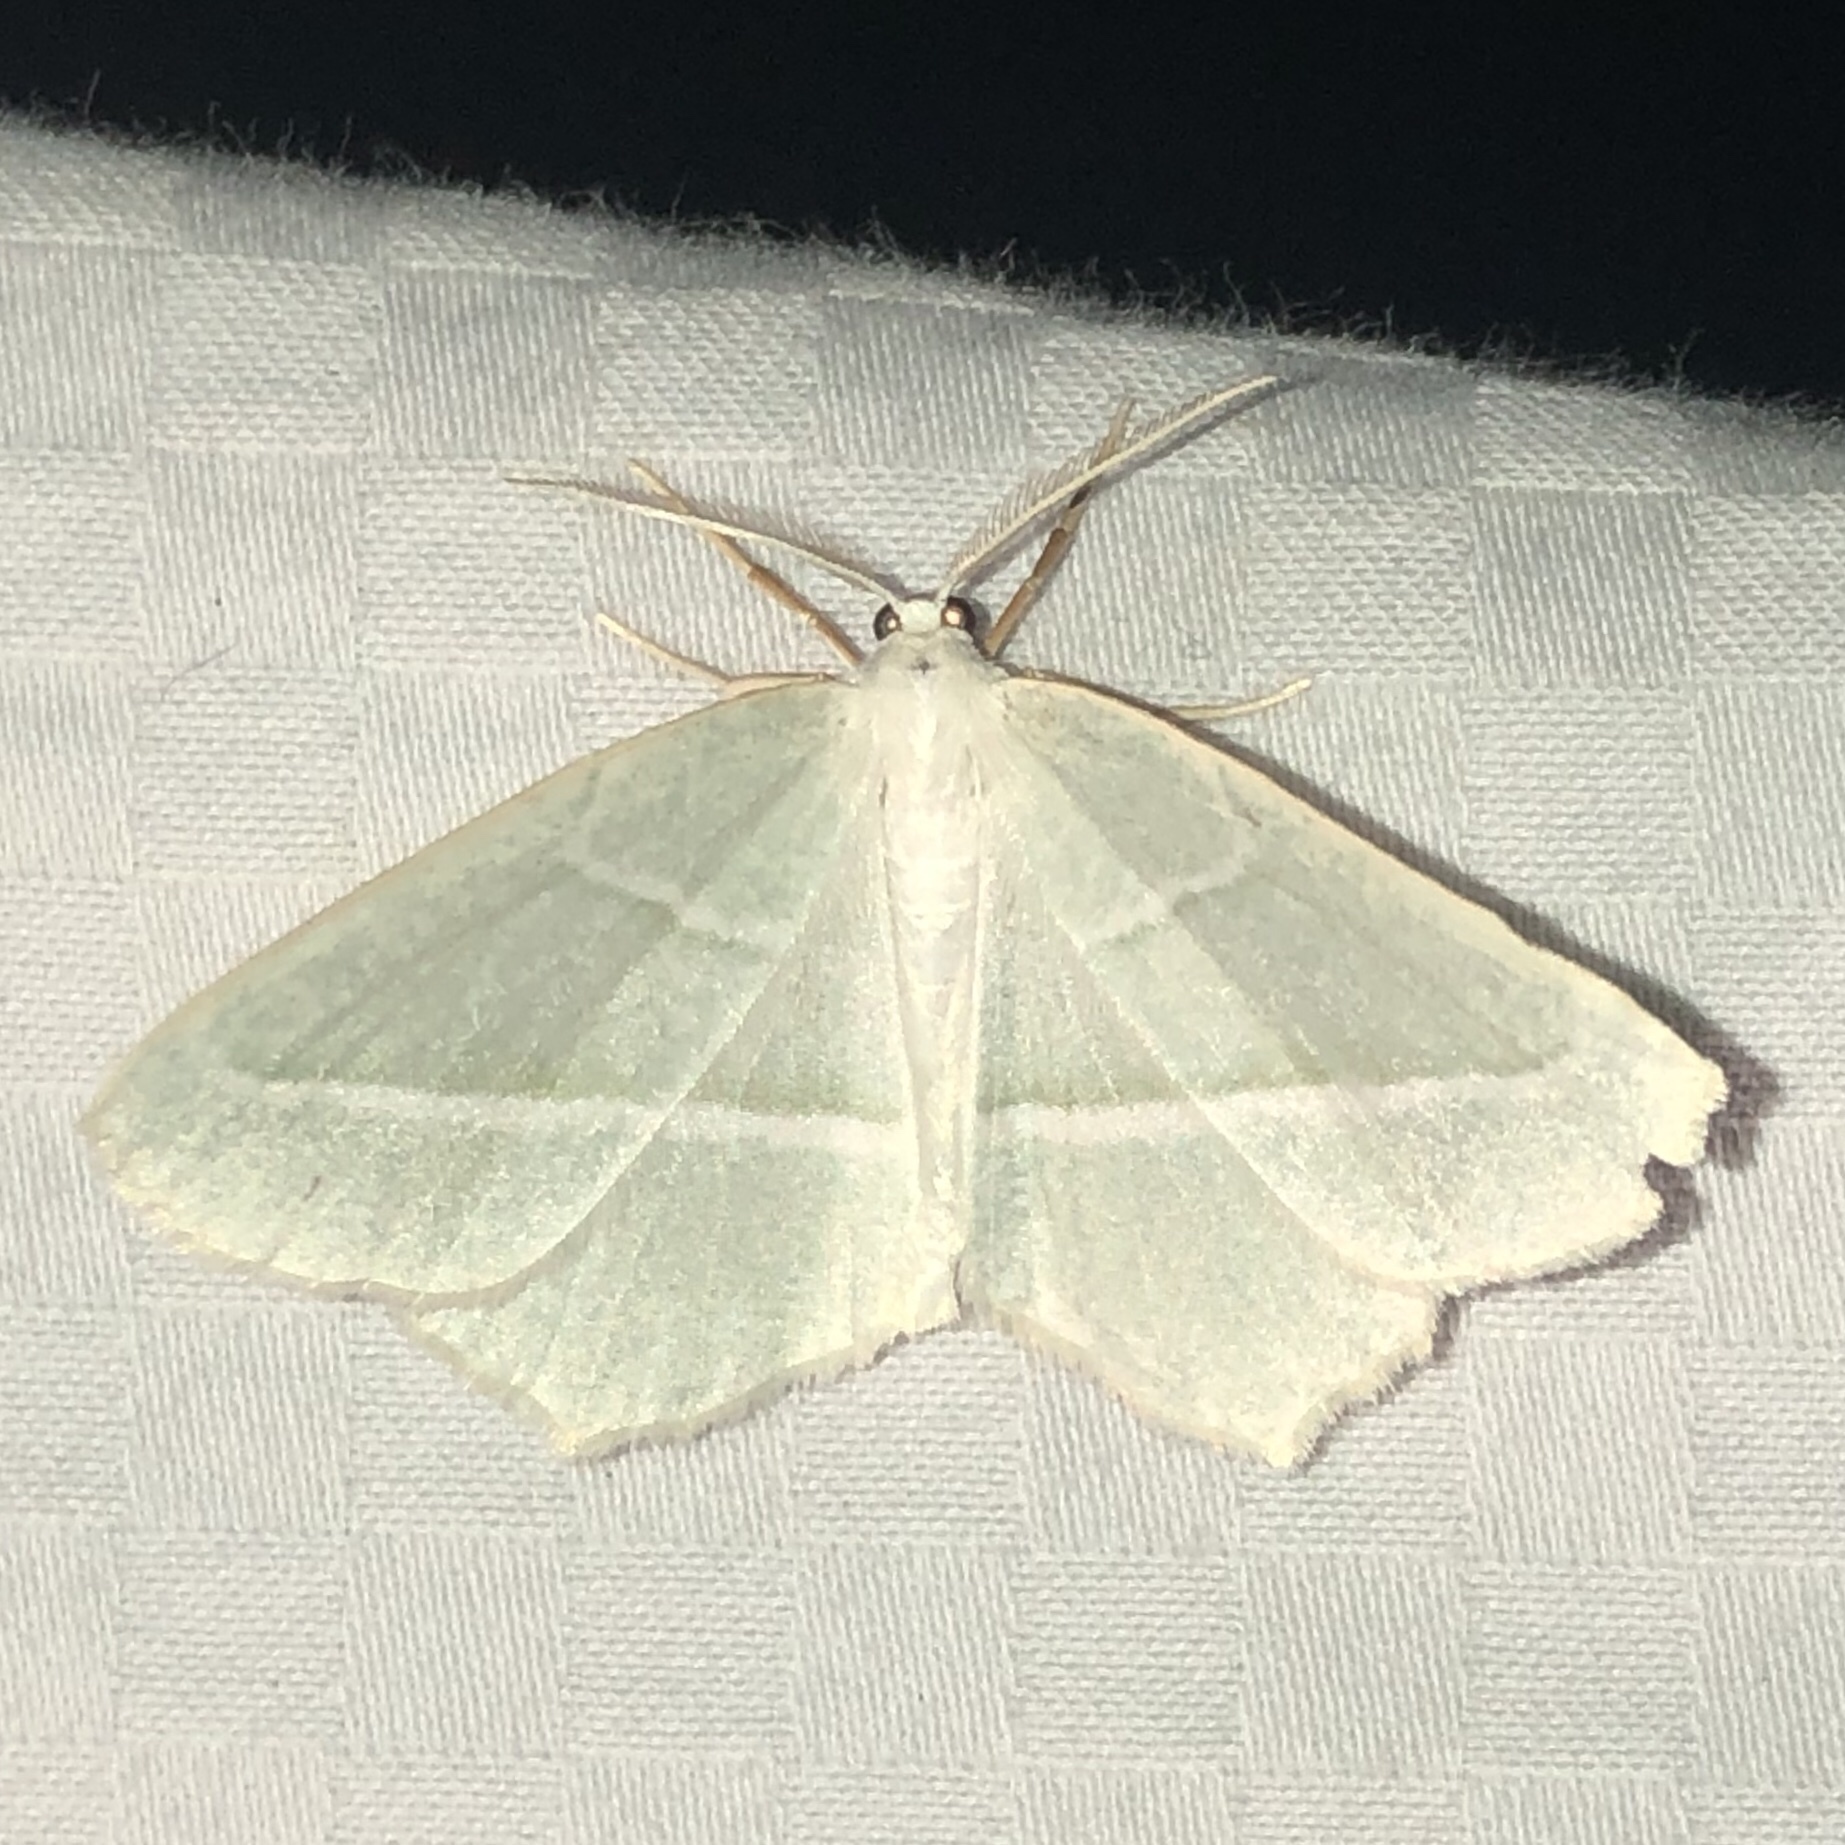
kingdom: Animalia
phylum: Arthropoda
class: Insecta
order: Lepidoptera
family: Geometridae
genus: Campaea
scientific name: Campaea perlata
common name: Fringed looper
